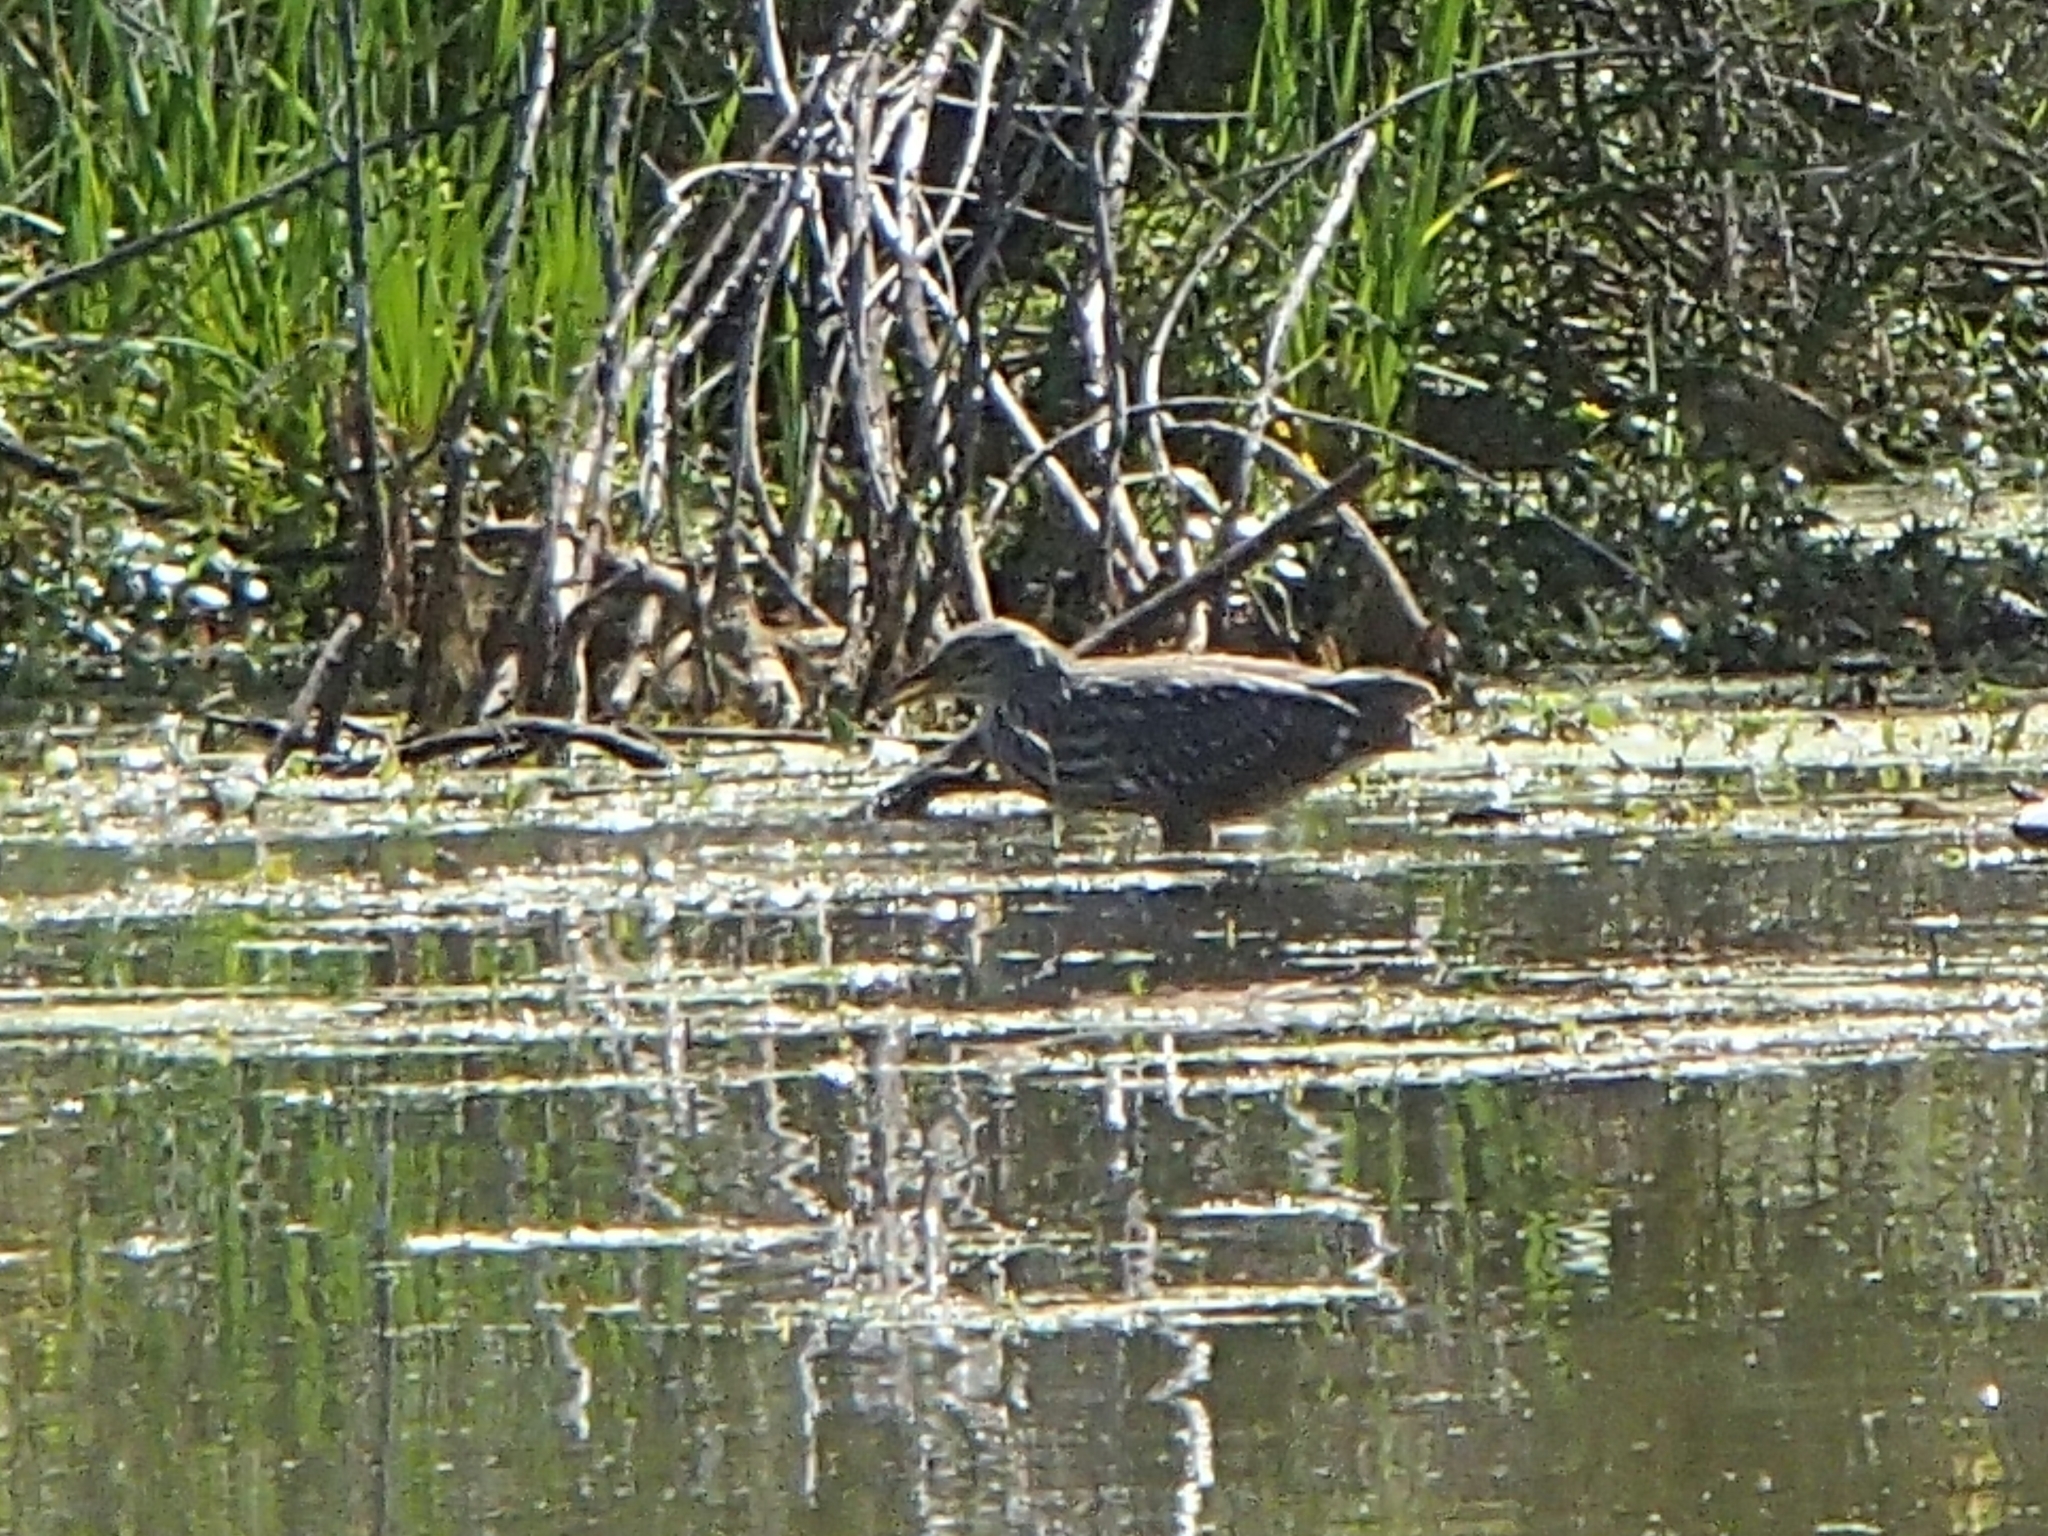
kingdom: Animalia
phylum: Chordata
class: Aves
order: Pelecaniformes
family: Ardeidae
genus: Nycticorax
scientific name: Nycticorax nycticorax
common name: Black-crowned night heron
